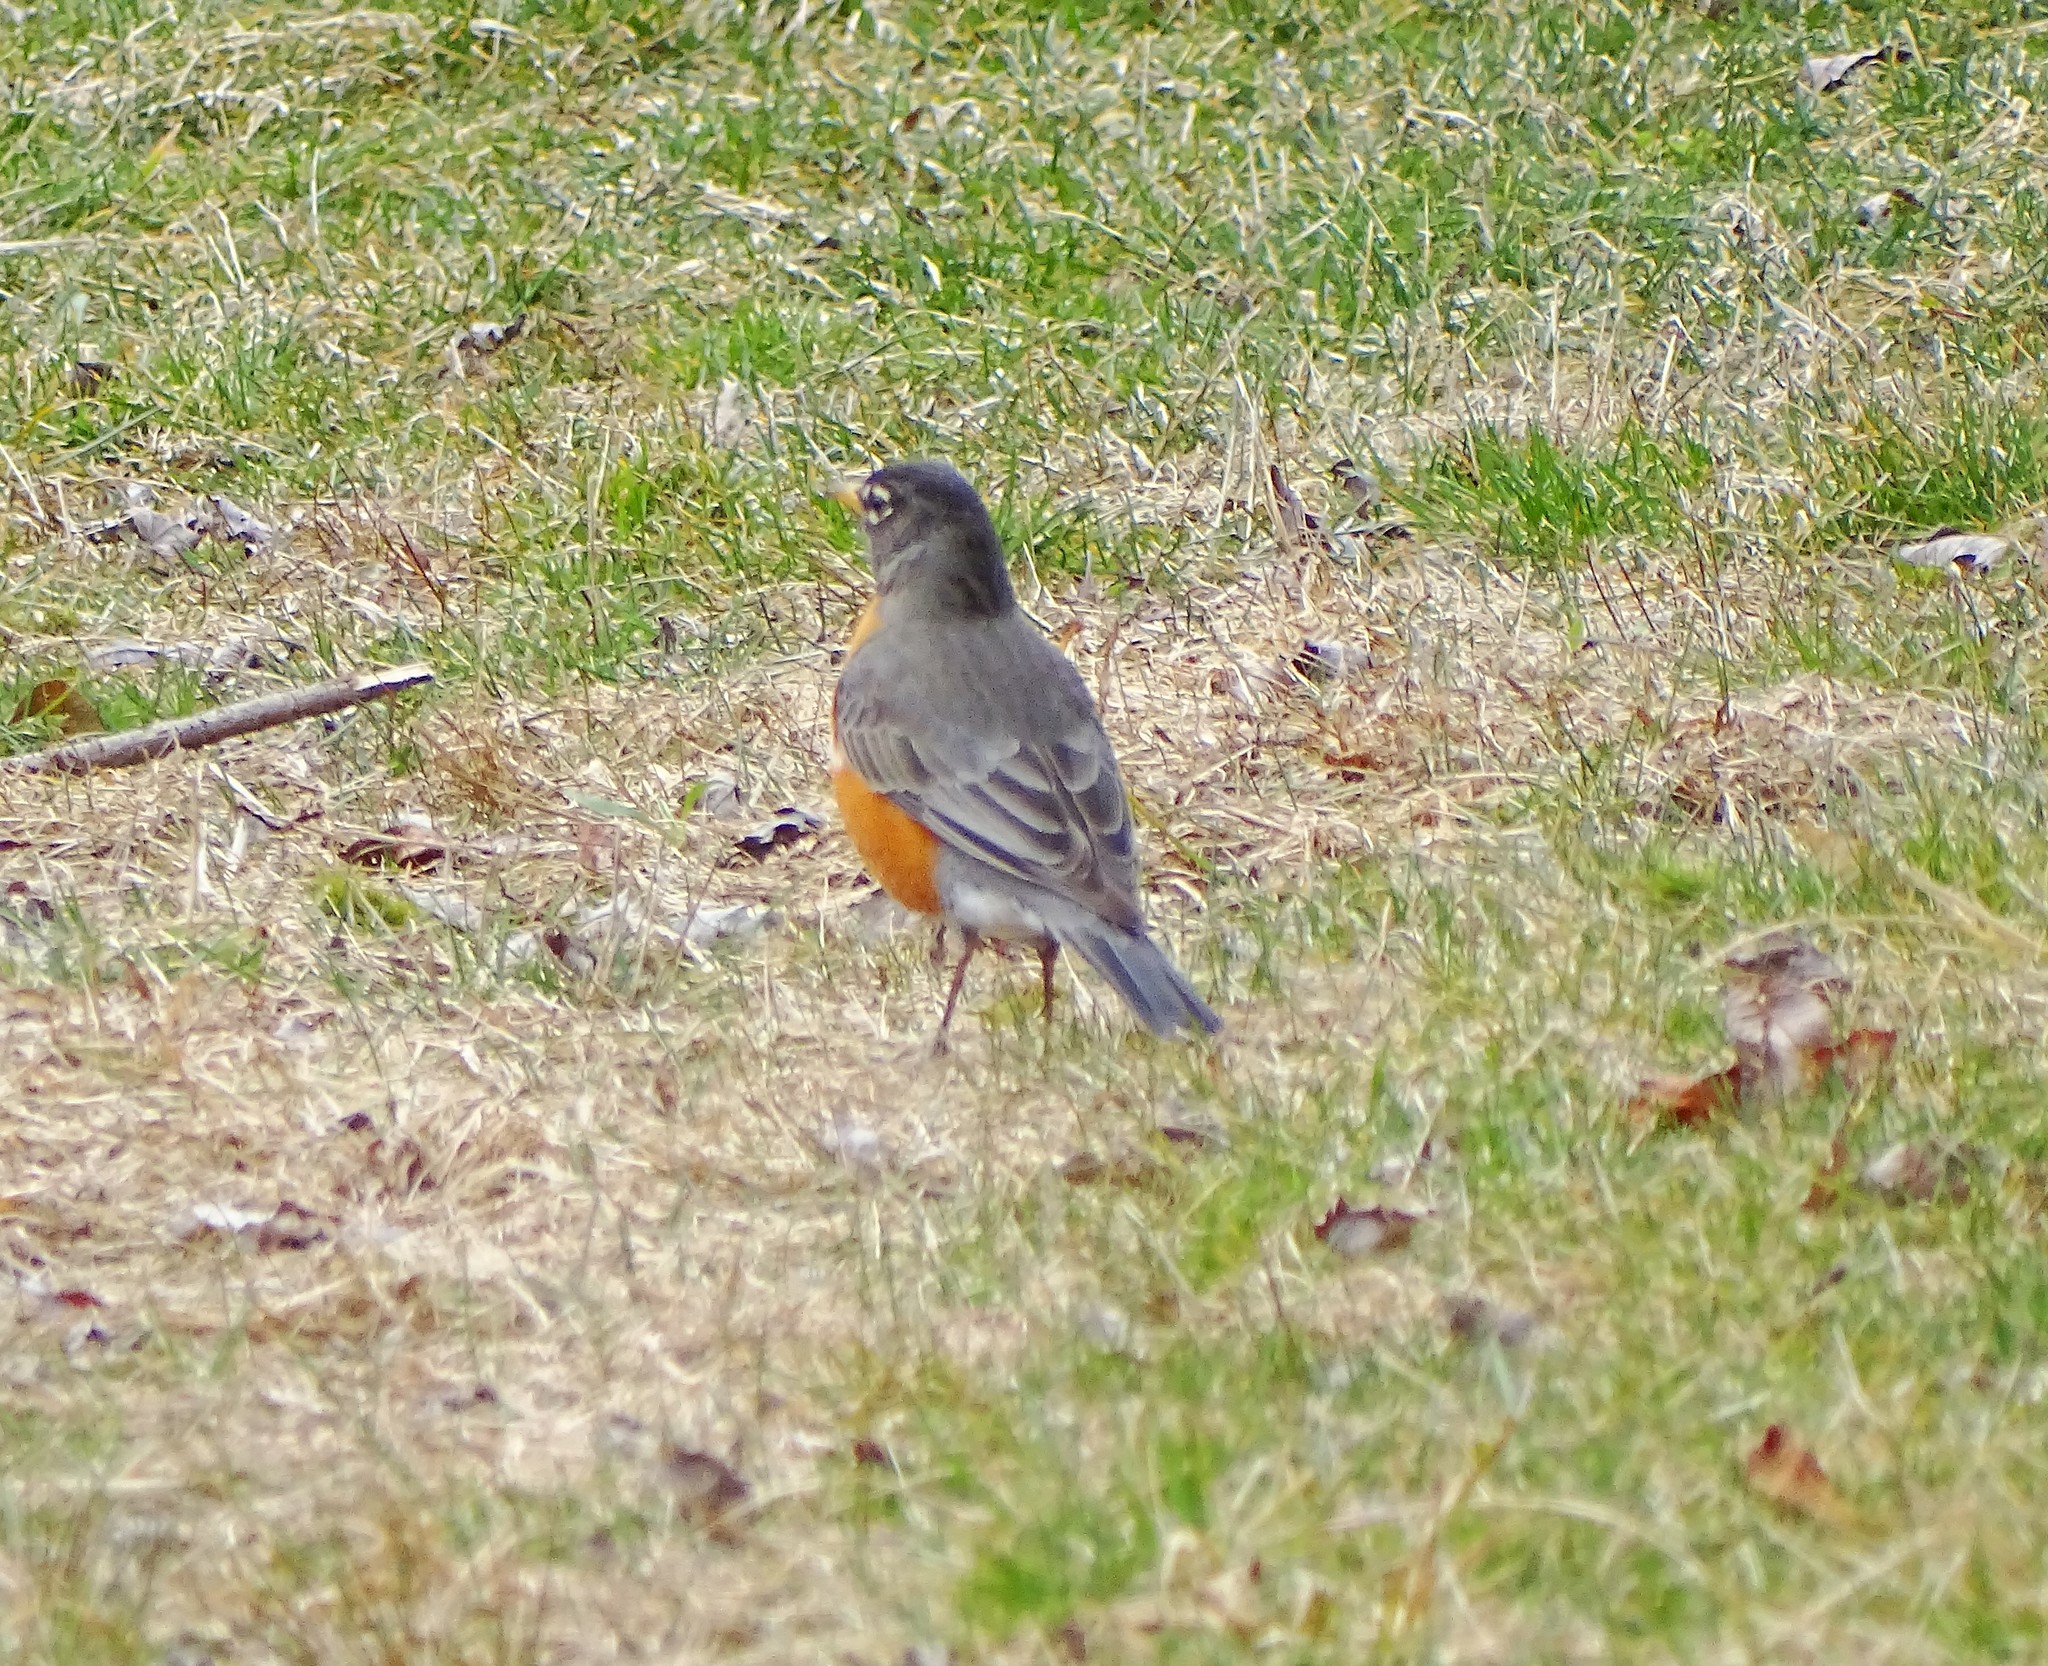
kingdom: Animalia
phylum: Chordata
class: Aves
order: Passeriformes
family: Turdidae
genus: Turdus
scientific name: Turdus migratorius
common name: American robin
